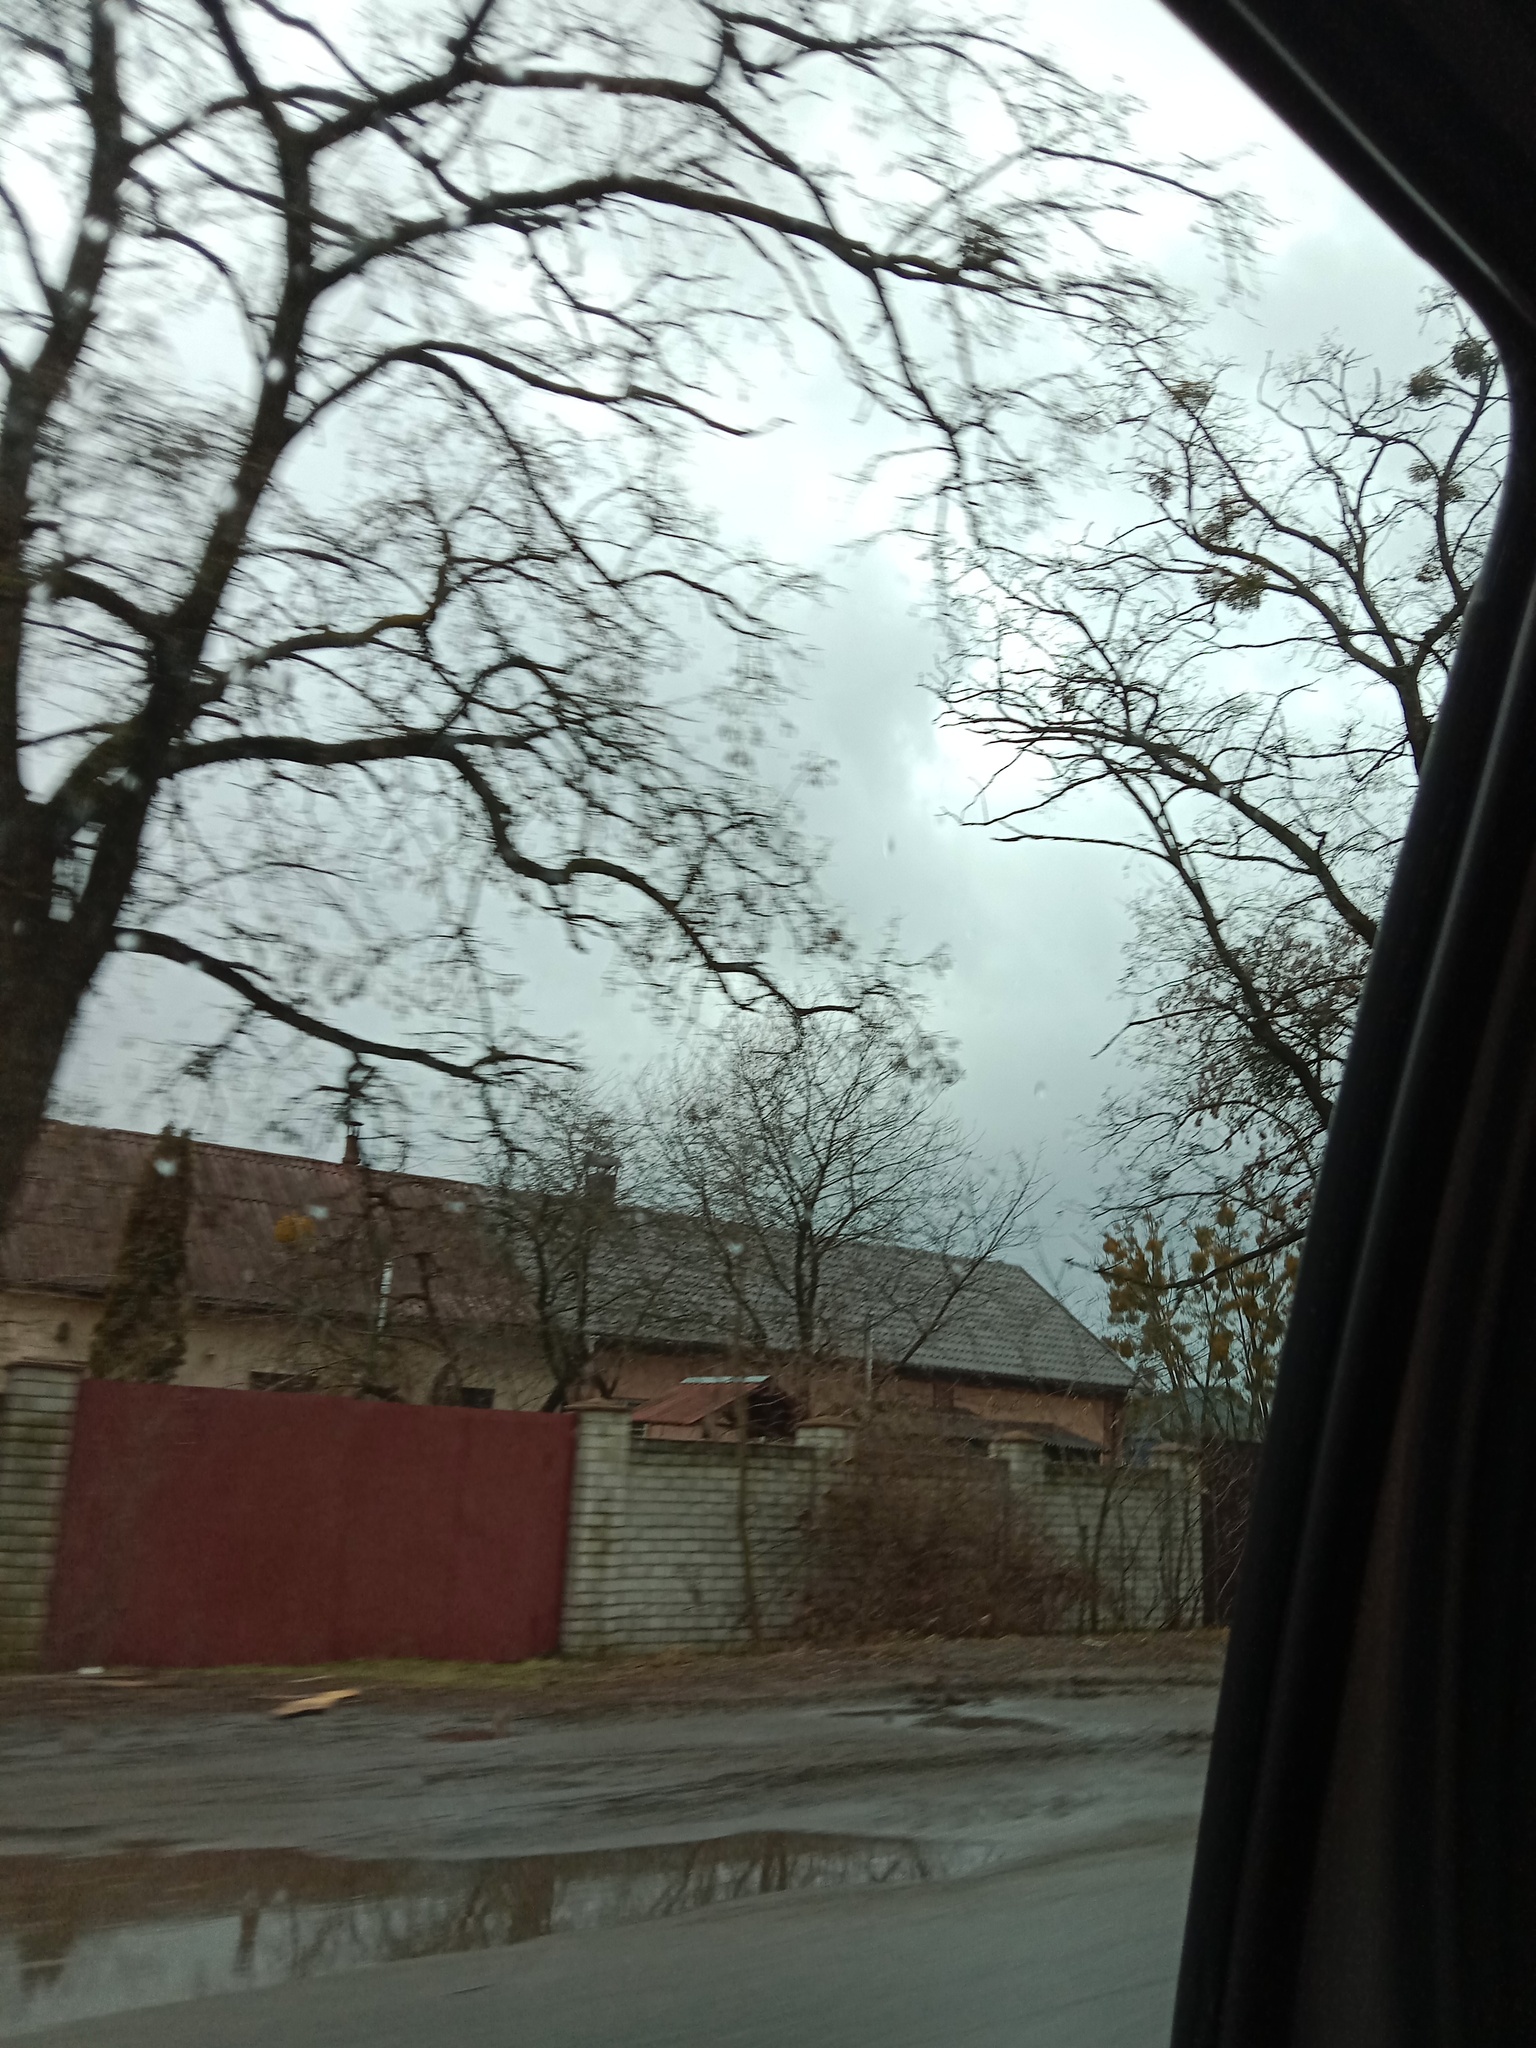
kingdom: Plantae
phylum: Tracheophyta
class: Magnoliopsida
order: Santalales
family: Viscaceae
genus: Viscum
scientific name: Viscum album
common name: Mistletoe
